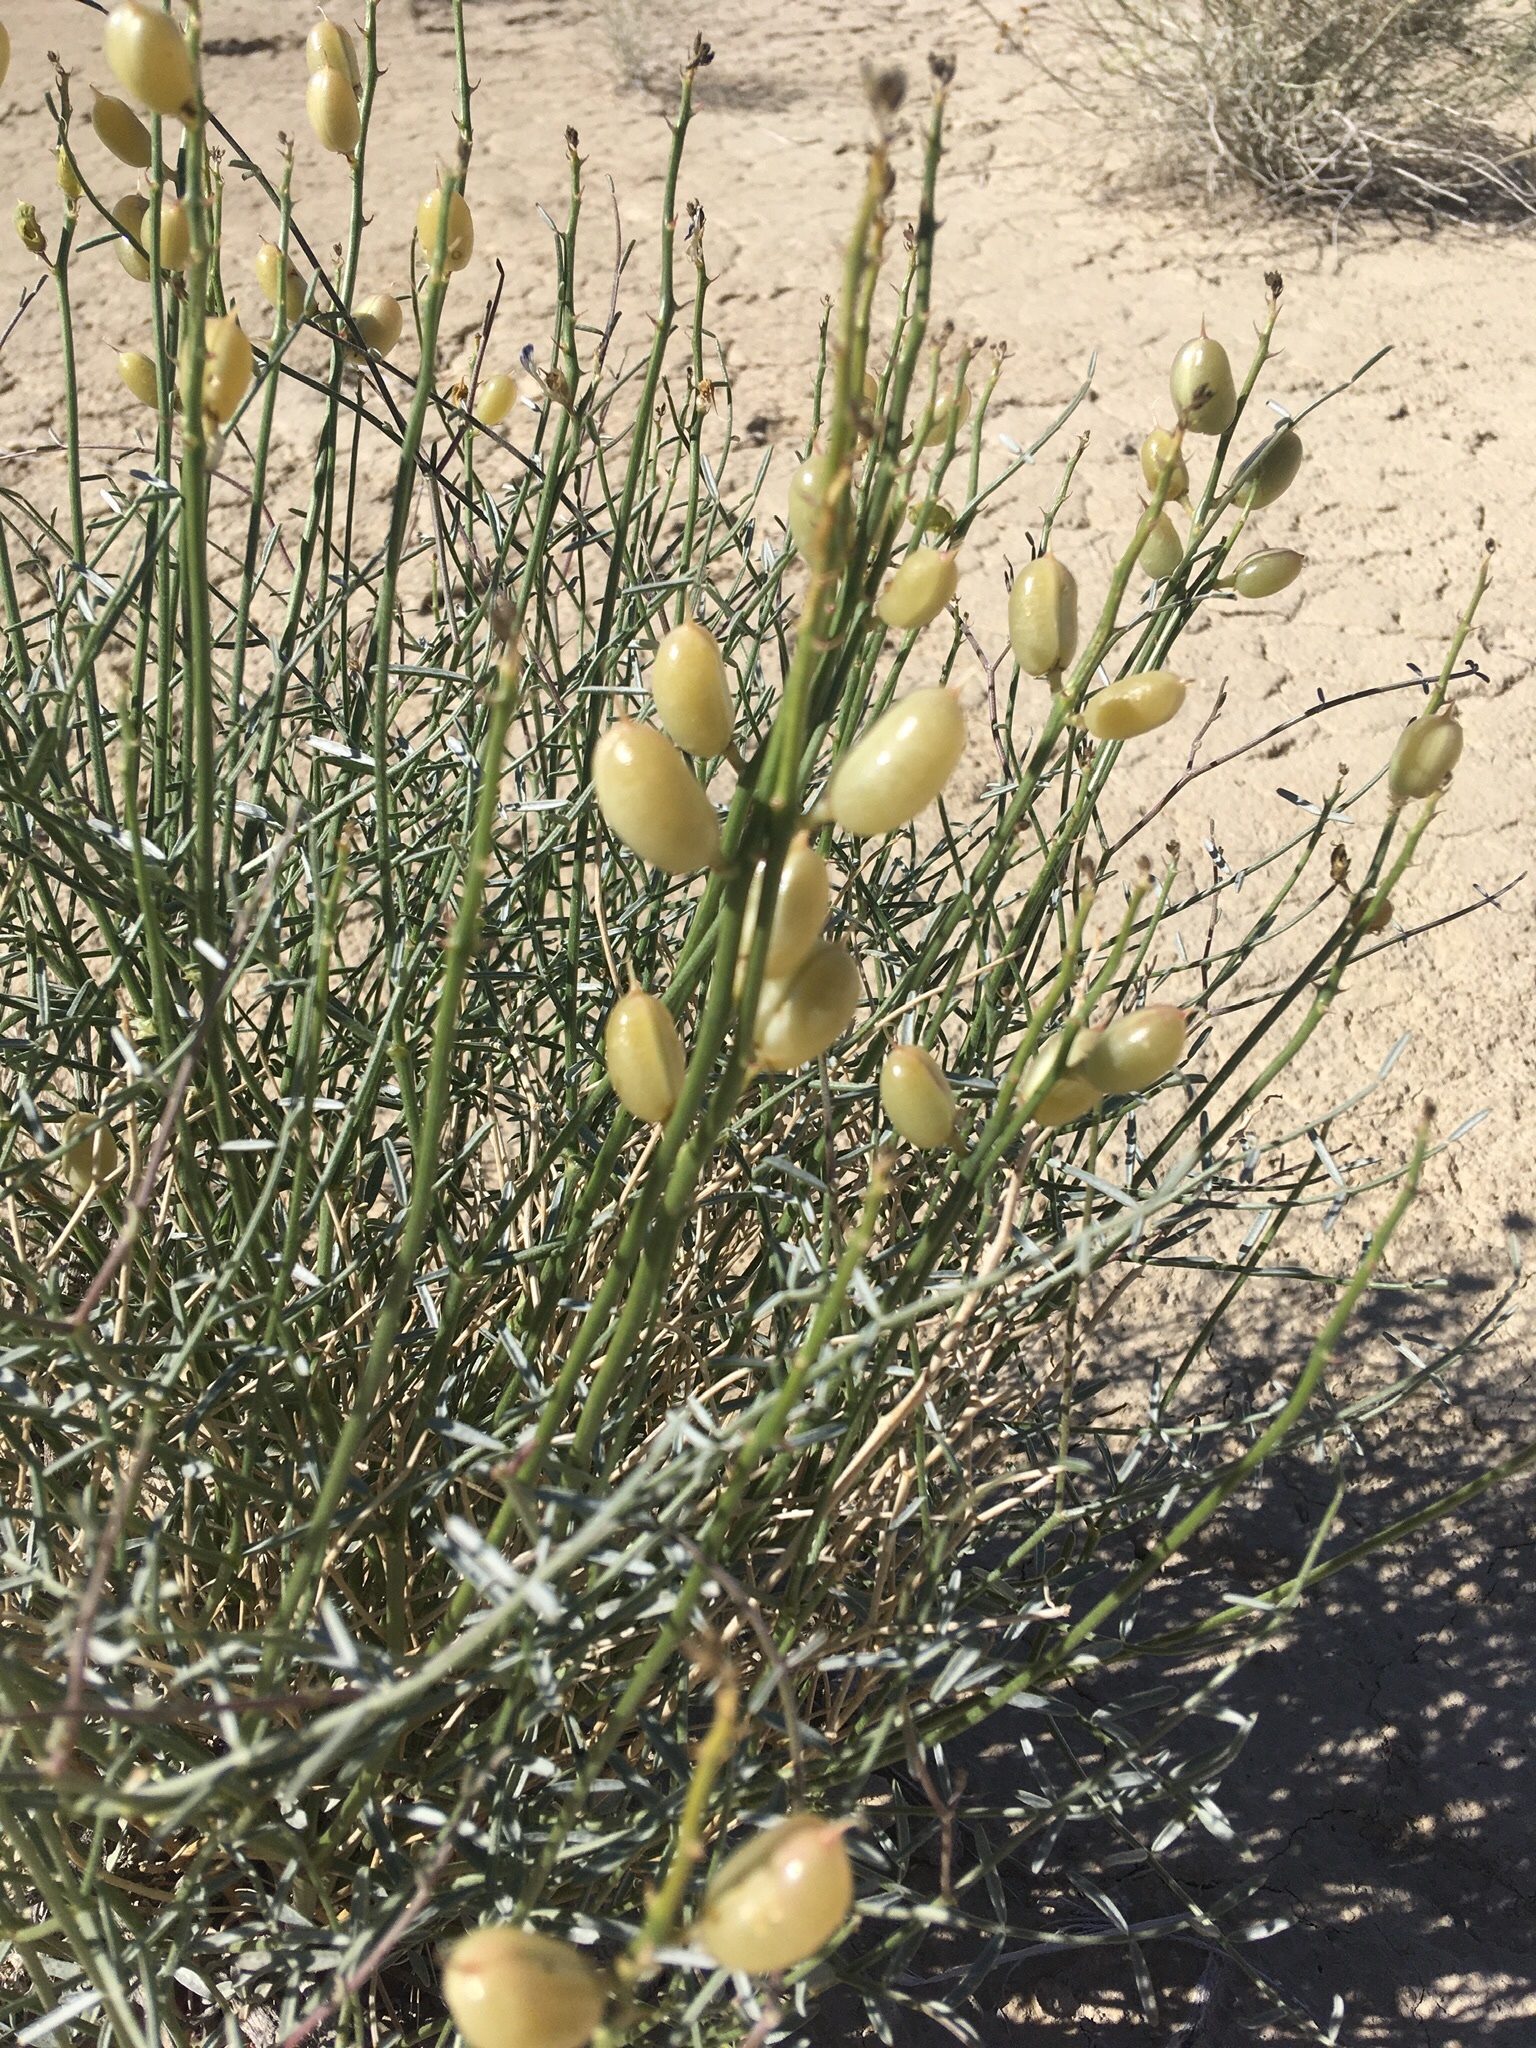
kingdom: Plantae
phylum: Tracheophyta
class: Magnoliopsida
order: Fabales
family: Fabaceae
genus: Astragalus
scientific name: Astragalus serenoi
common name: Naked milk-vetch
